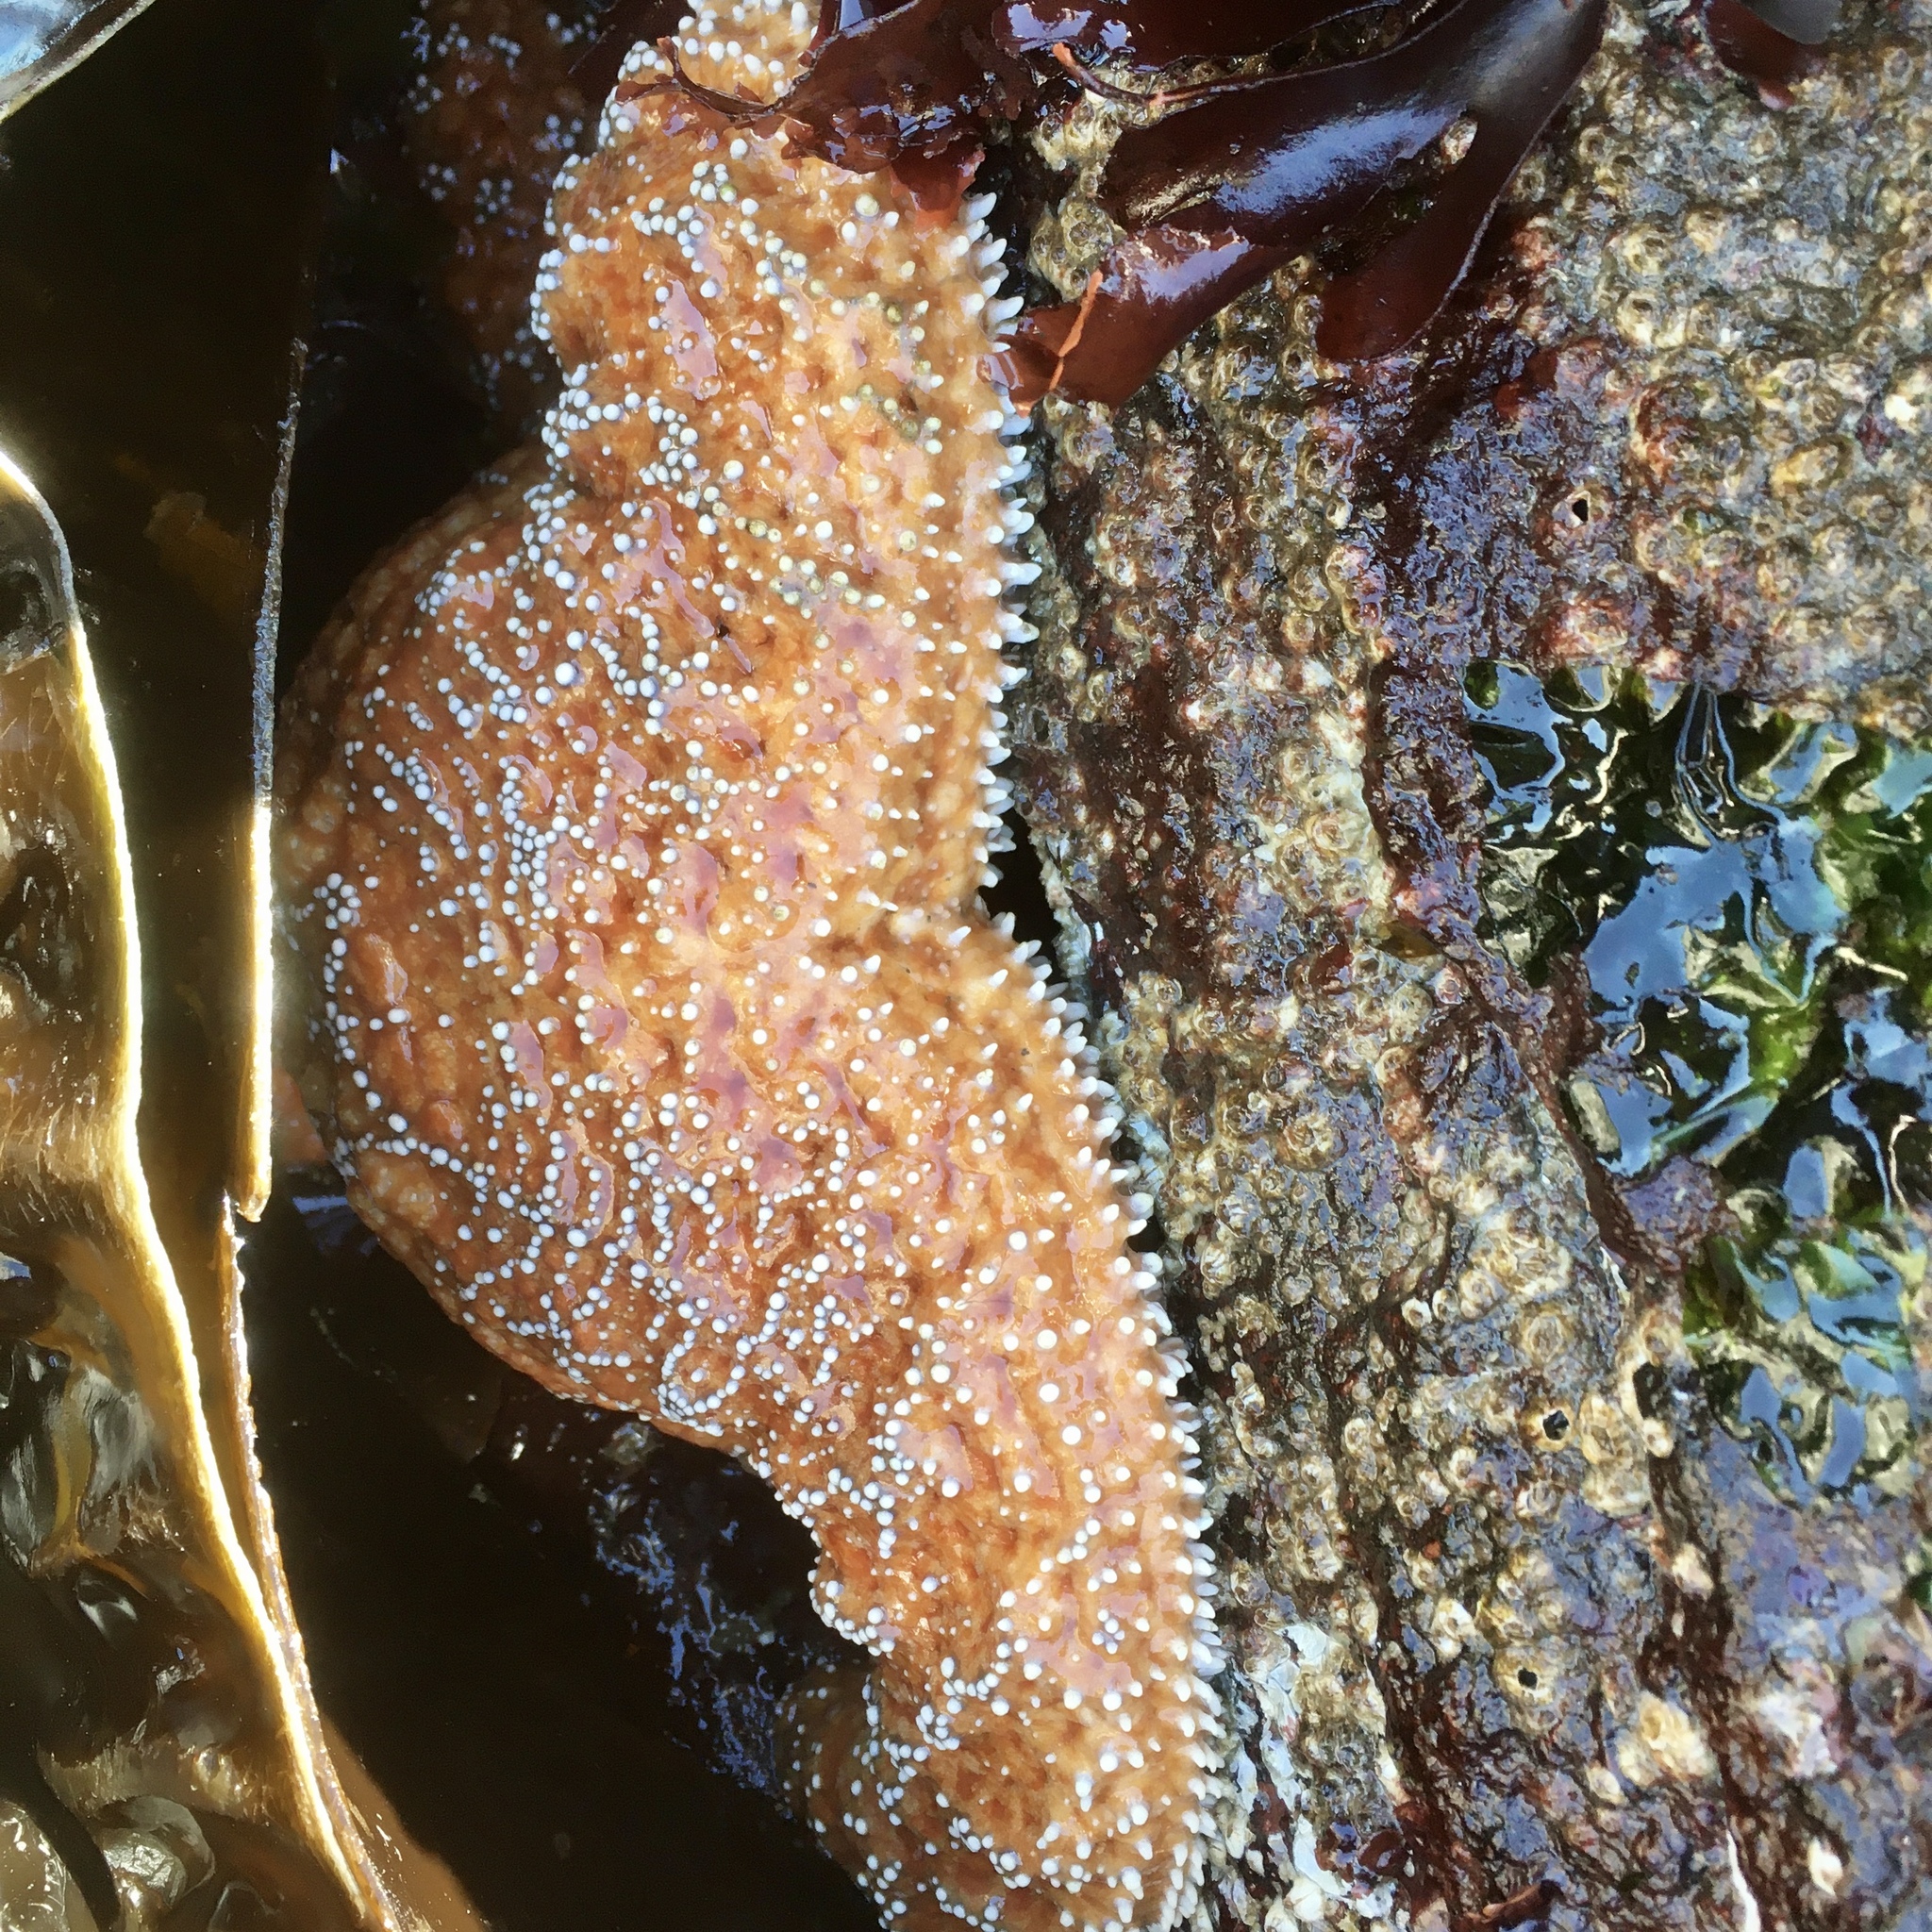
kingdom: Animalia
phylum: Echinodermata
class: Asteroidea
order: Forcipulatida
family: Asteriidae
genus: Pisaster
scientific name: Pisaster ochraceus
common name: Ochre stars
